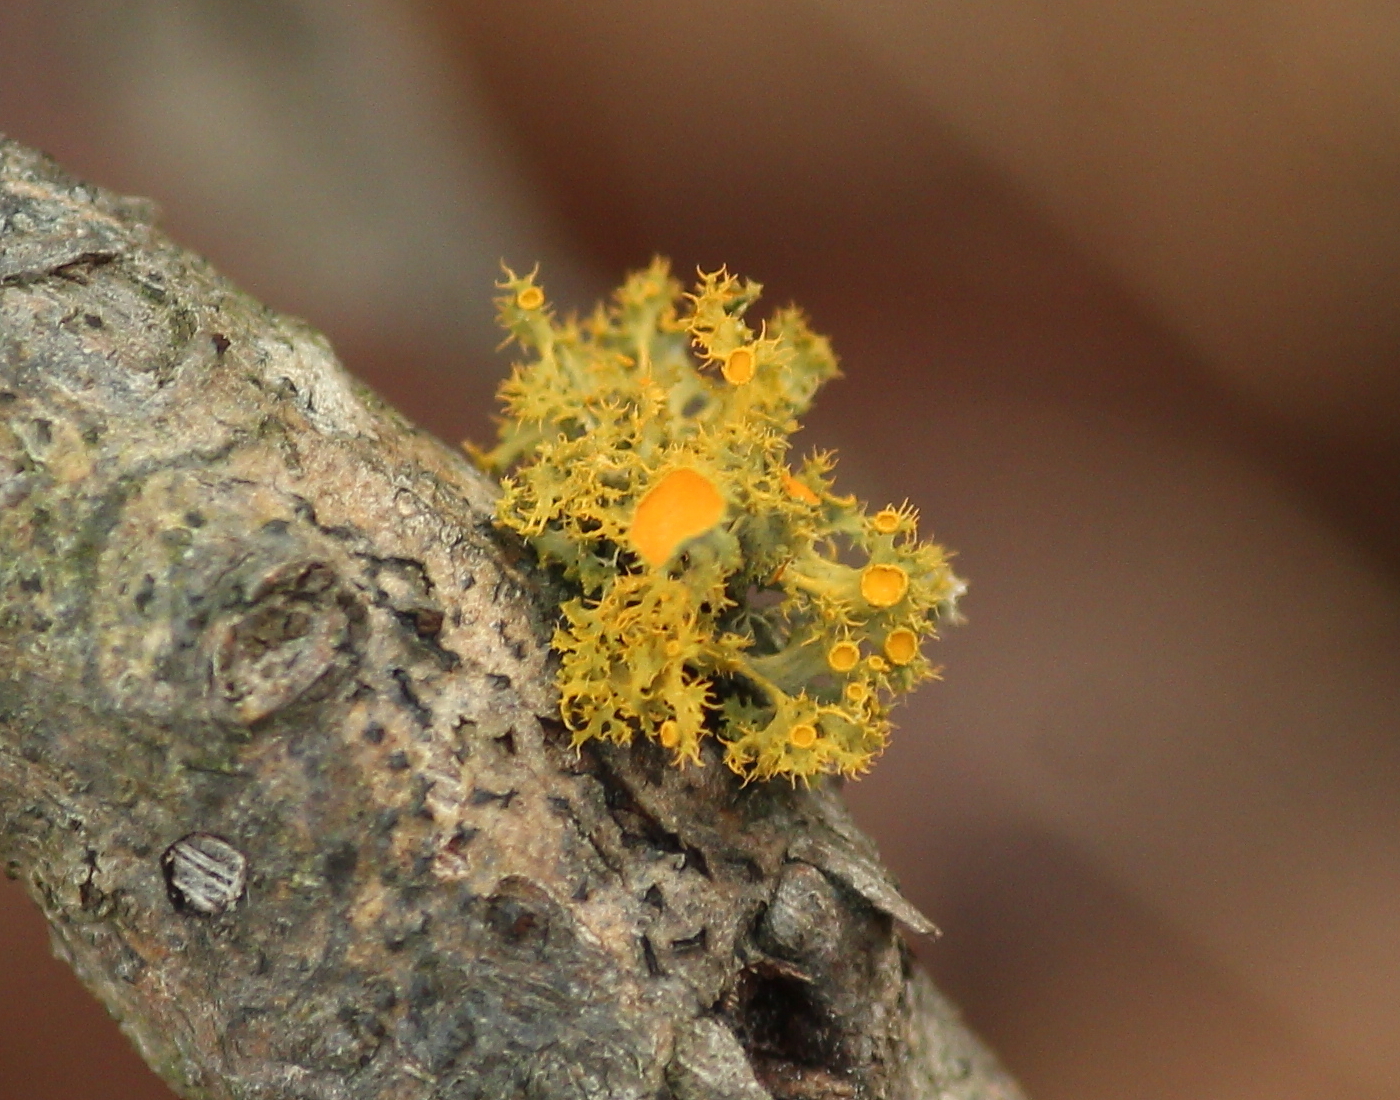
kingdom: Fungi
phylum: Ascomycota
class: Lecanoromycetes
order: Teloschistales
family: Teloschistaceae
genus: Niorma
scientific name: Niorma chrysophthalma
